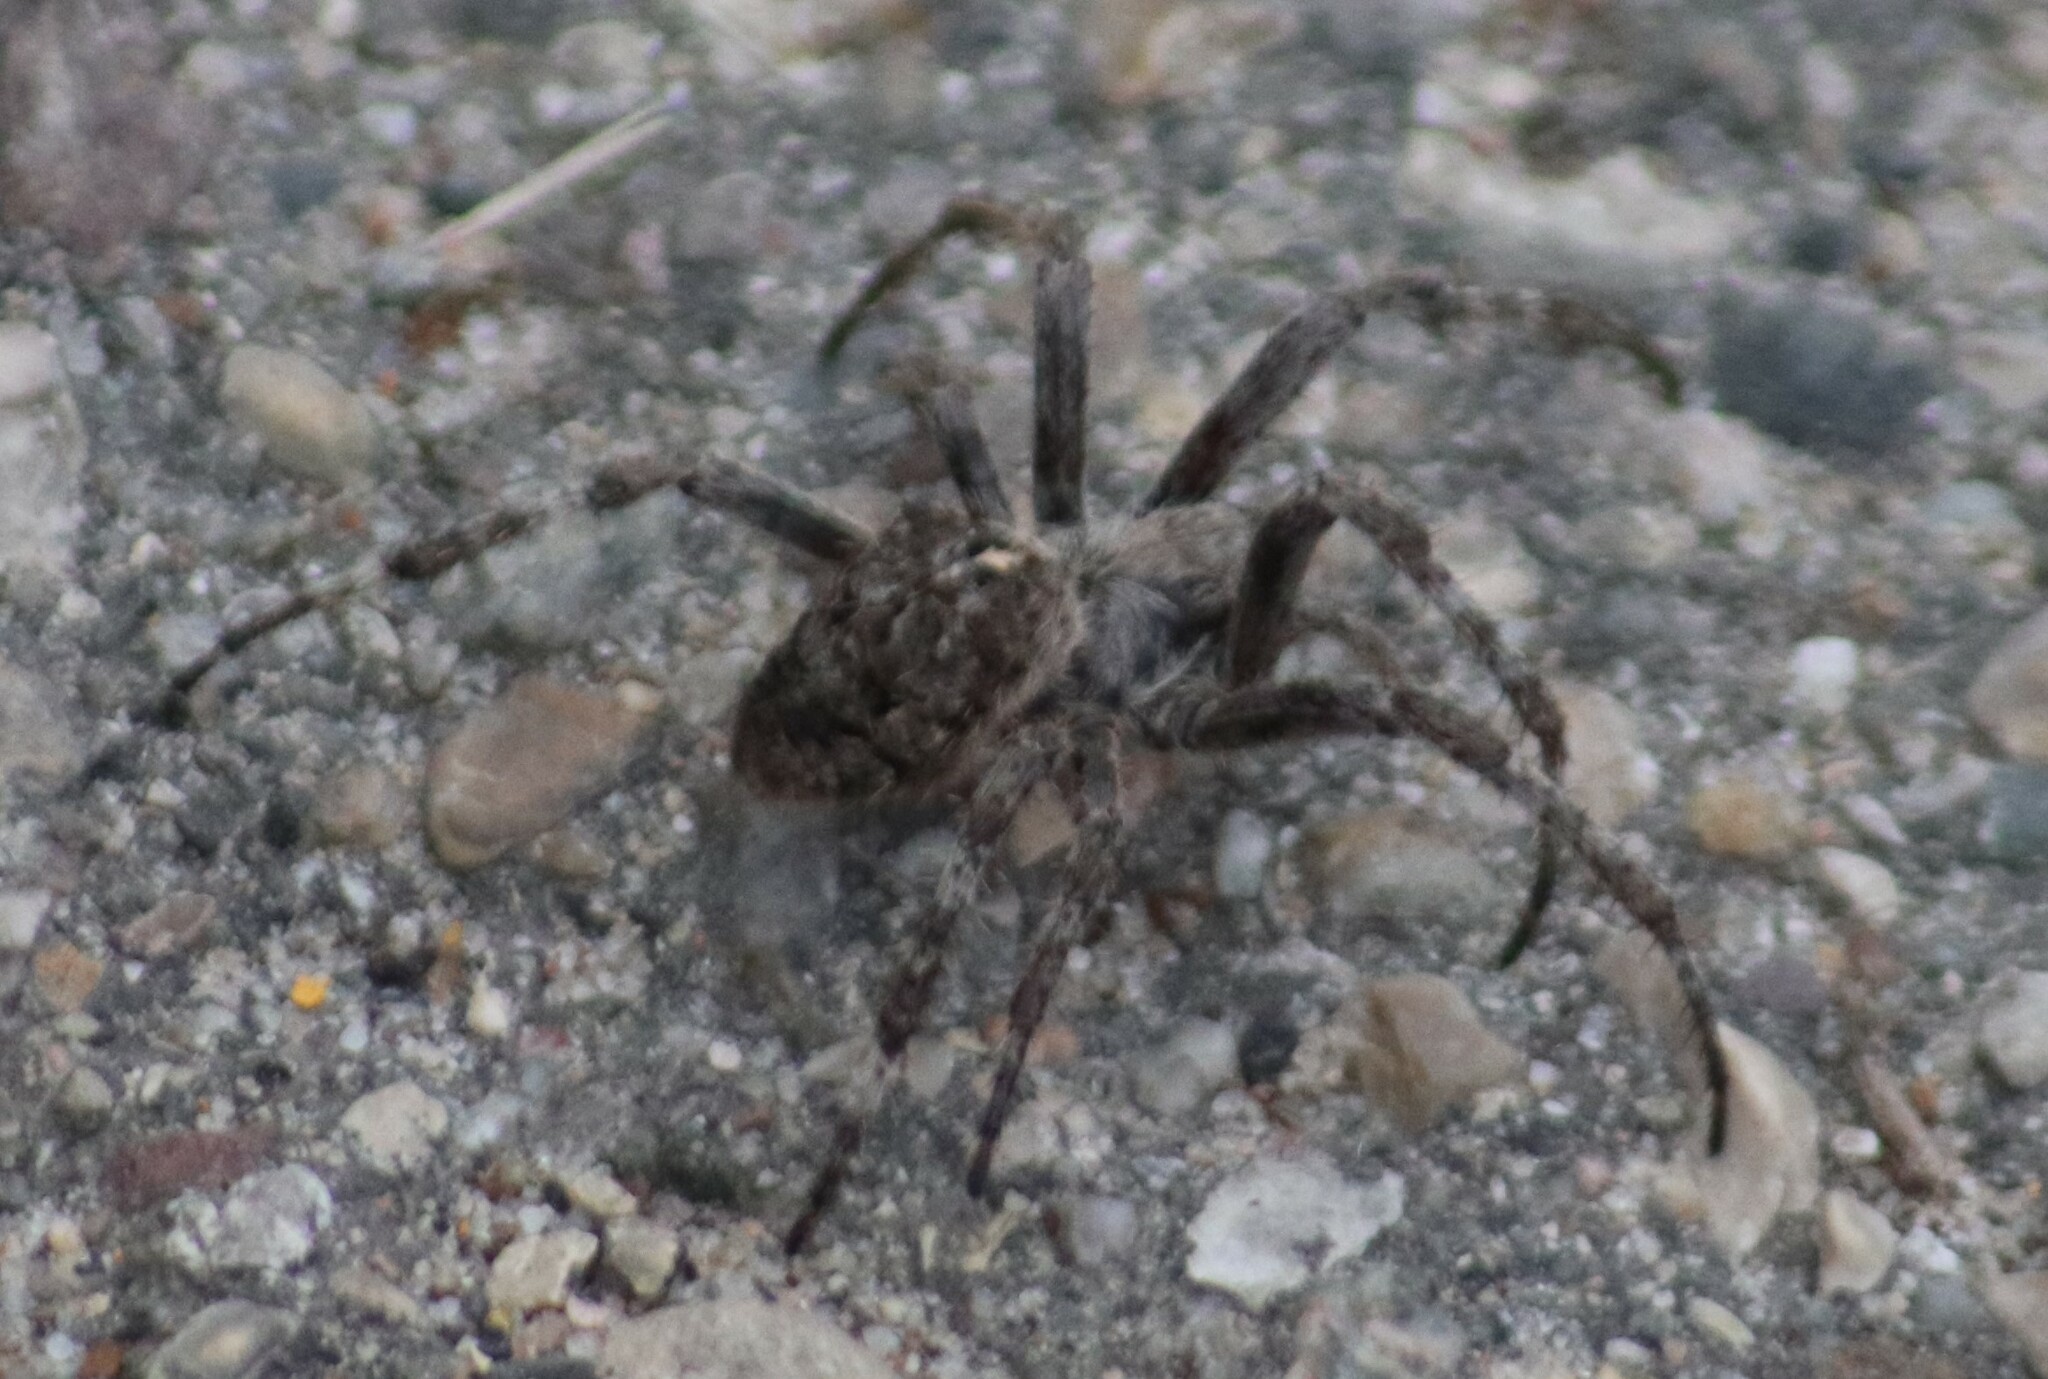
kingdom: Animalia
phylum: Arthropoda
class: Arachnida
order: Araneae
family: Araneidae
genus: Araneus
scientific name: Araneus saevus
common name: Fierce orbweaver
